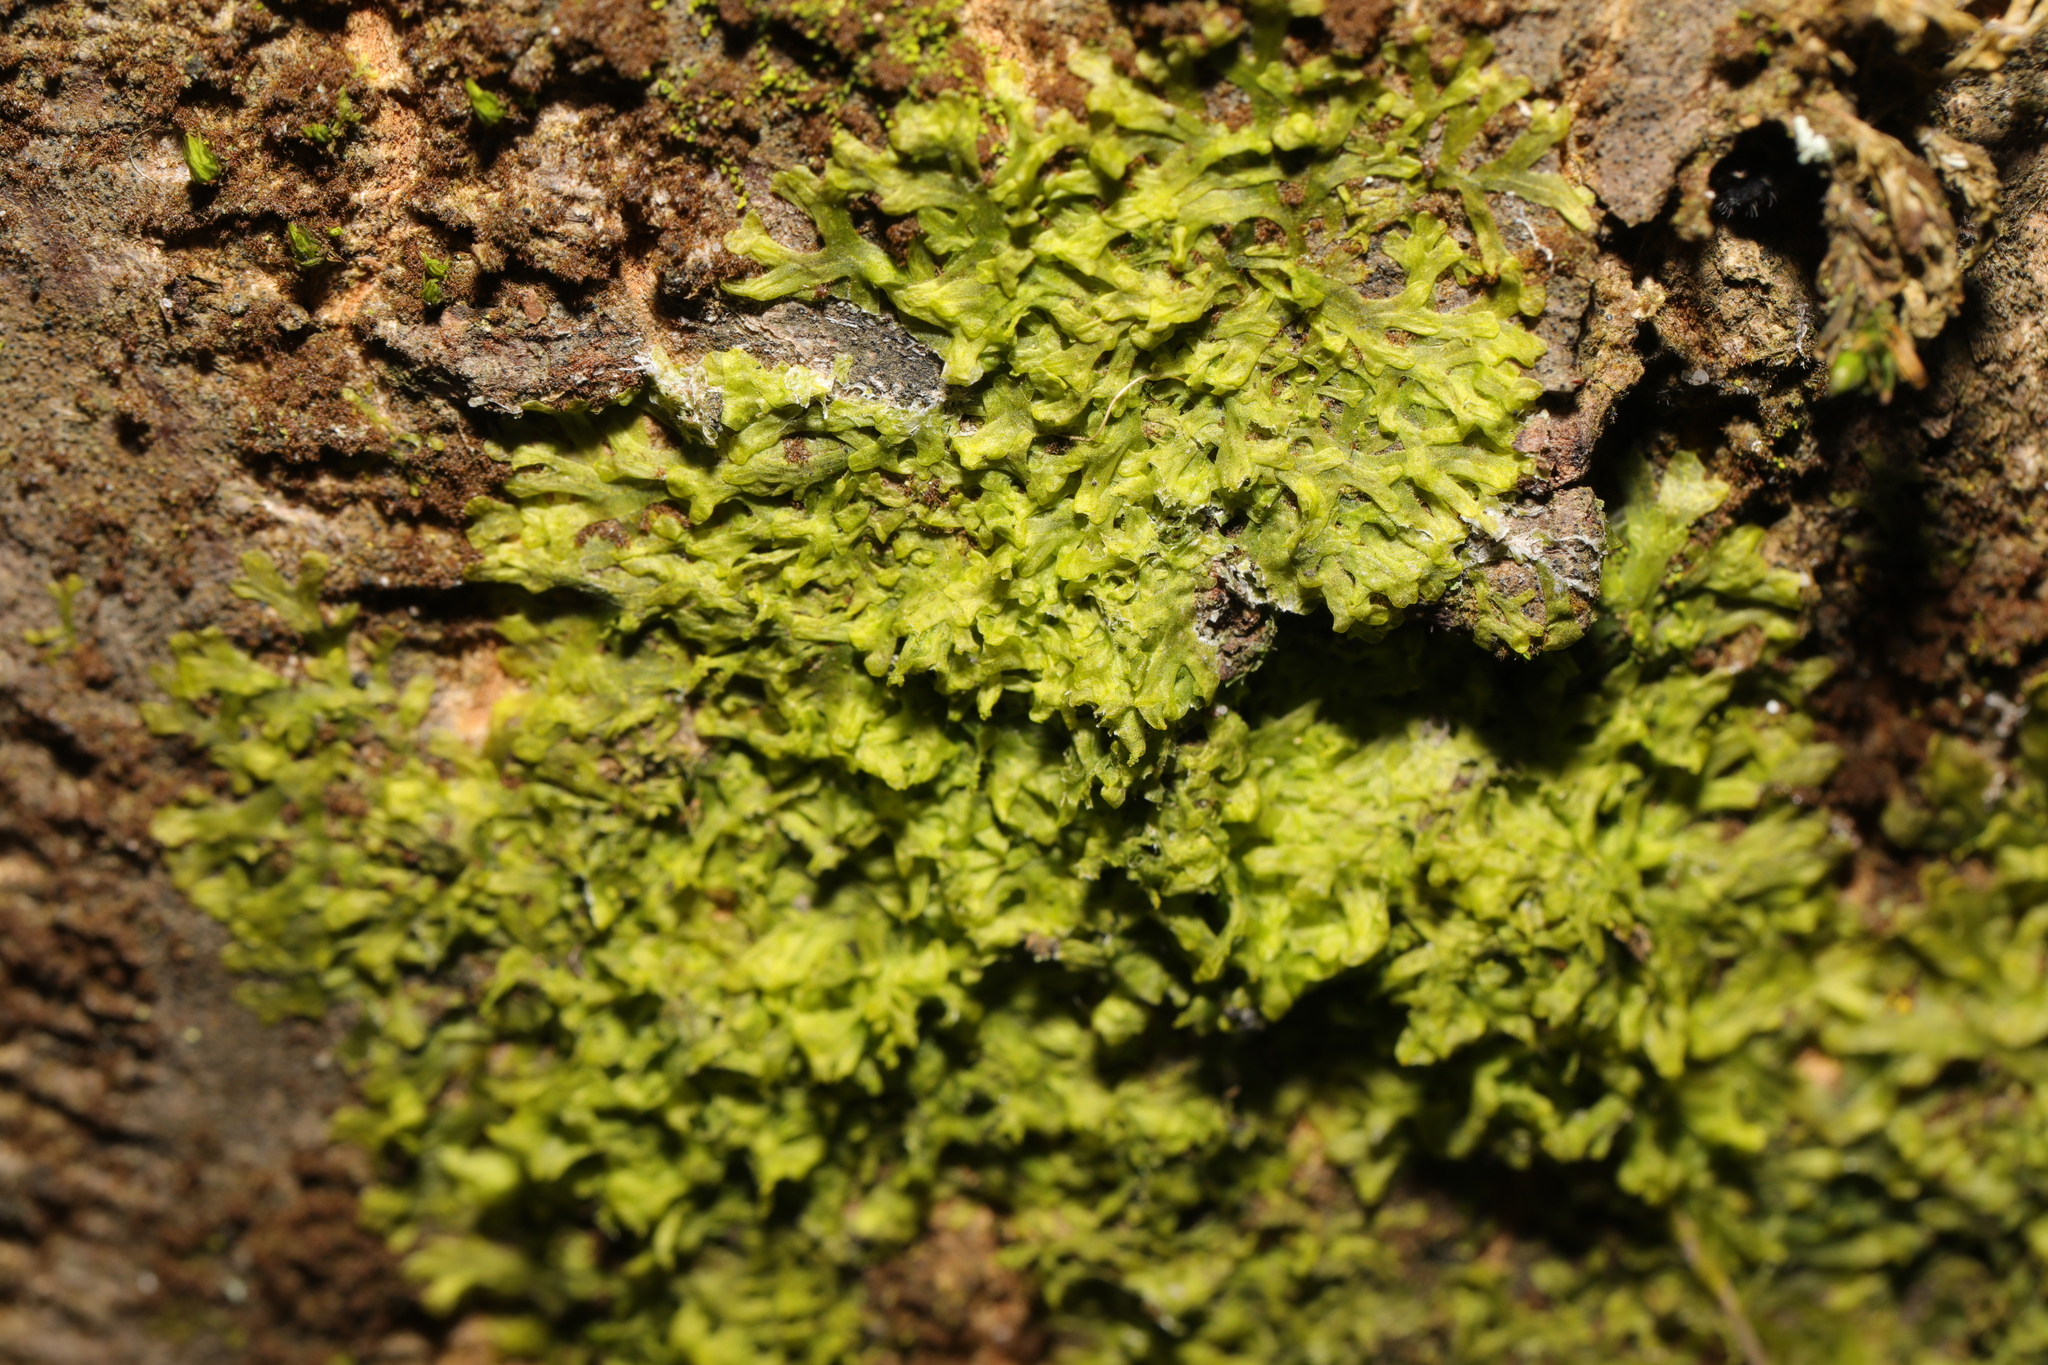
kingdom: Plantae
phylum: Marchantiophyta
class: Jungermanniopsida
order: Metzgeriales
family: Metzgeriaceae
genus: Metzgeria
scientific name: Metzgeria furcata
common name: Forked veilwort
